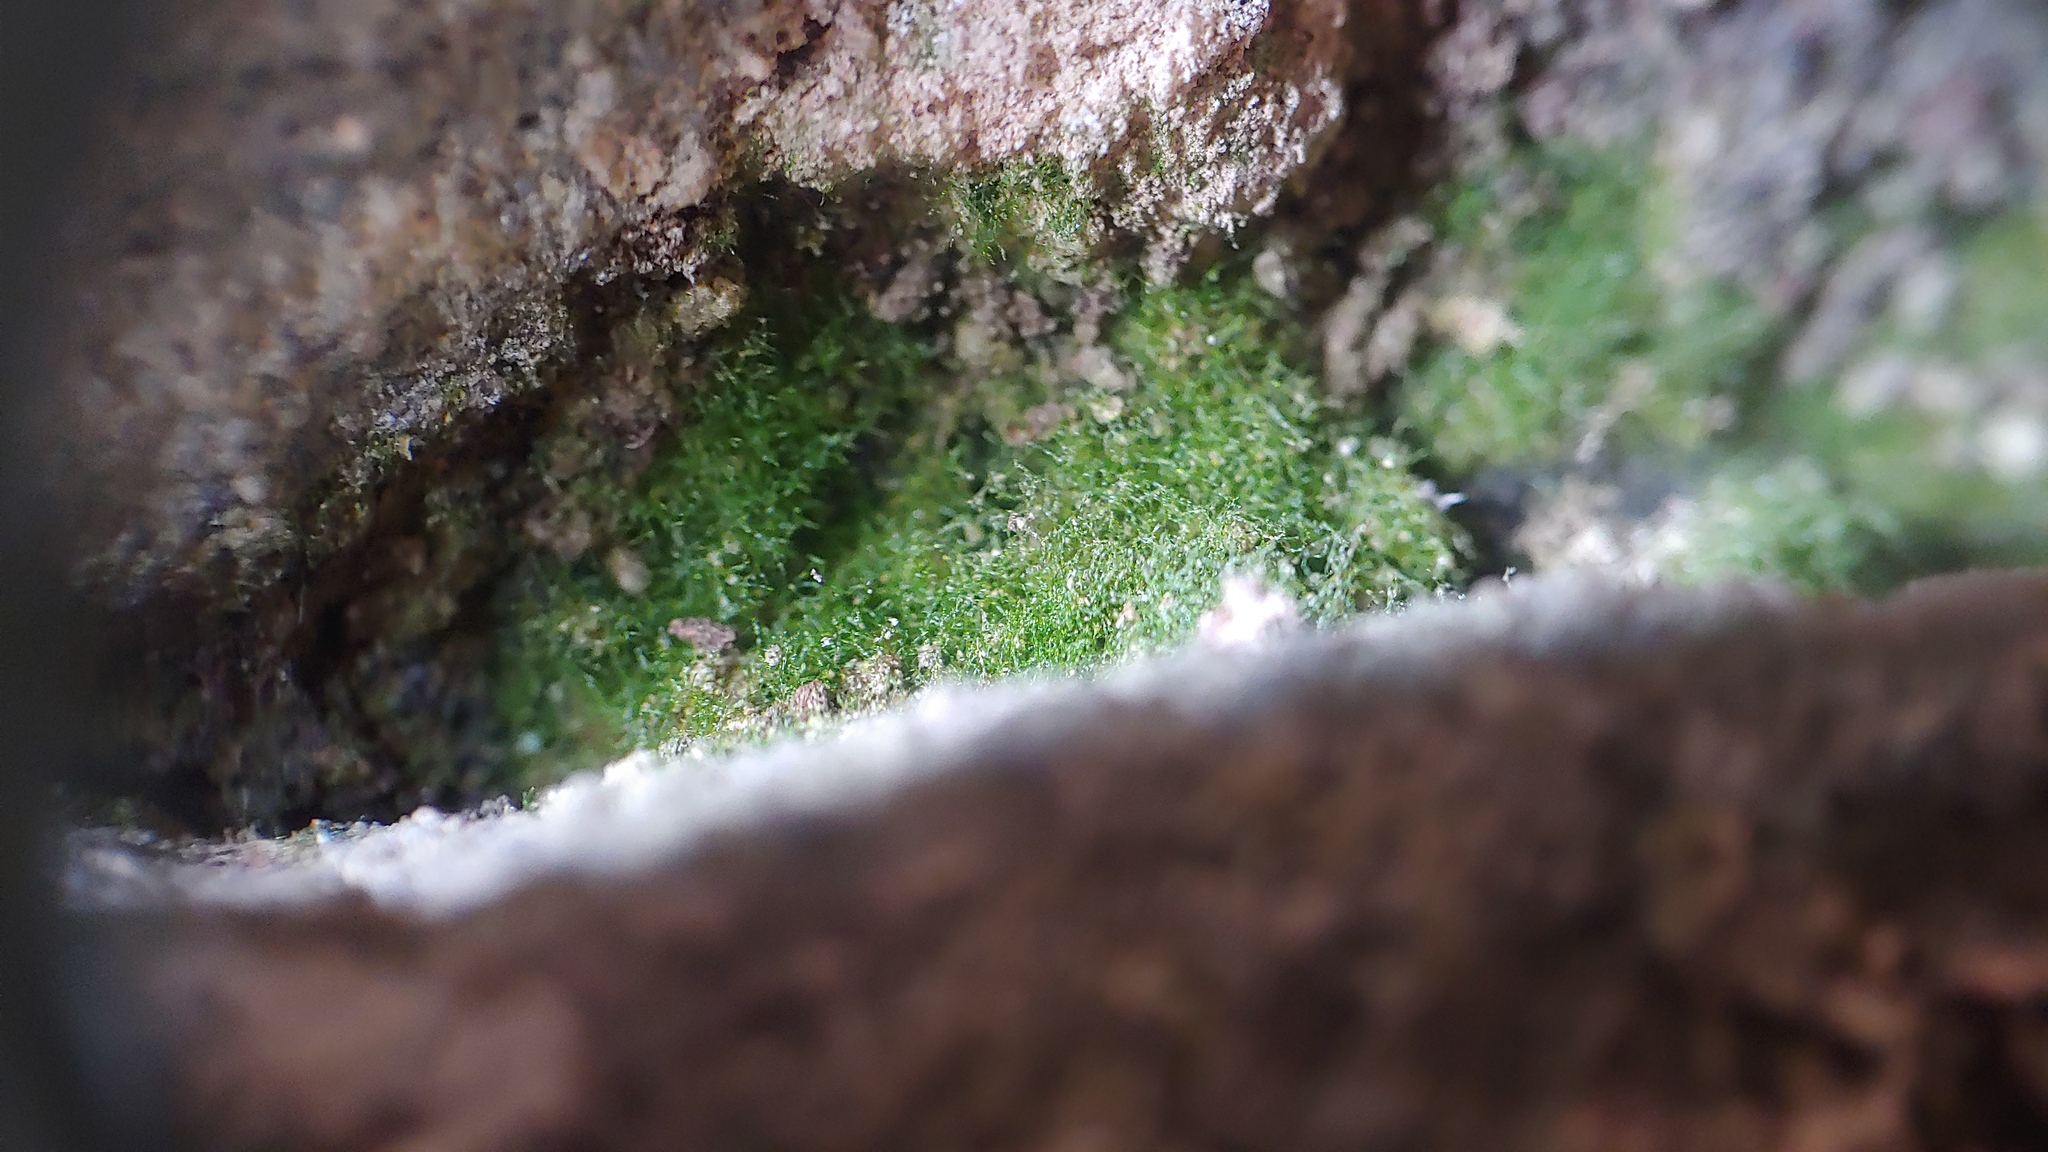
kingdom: Plantae
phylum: Tracheophyta
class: Polypodiopsida
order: Hymenophyllales
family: Hymenophyllaceae
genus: Crepidomanes
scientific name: Crepidomanes intricatum
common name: Weft fern
